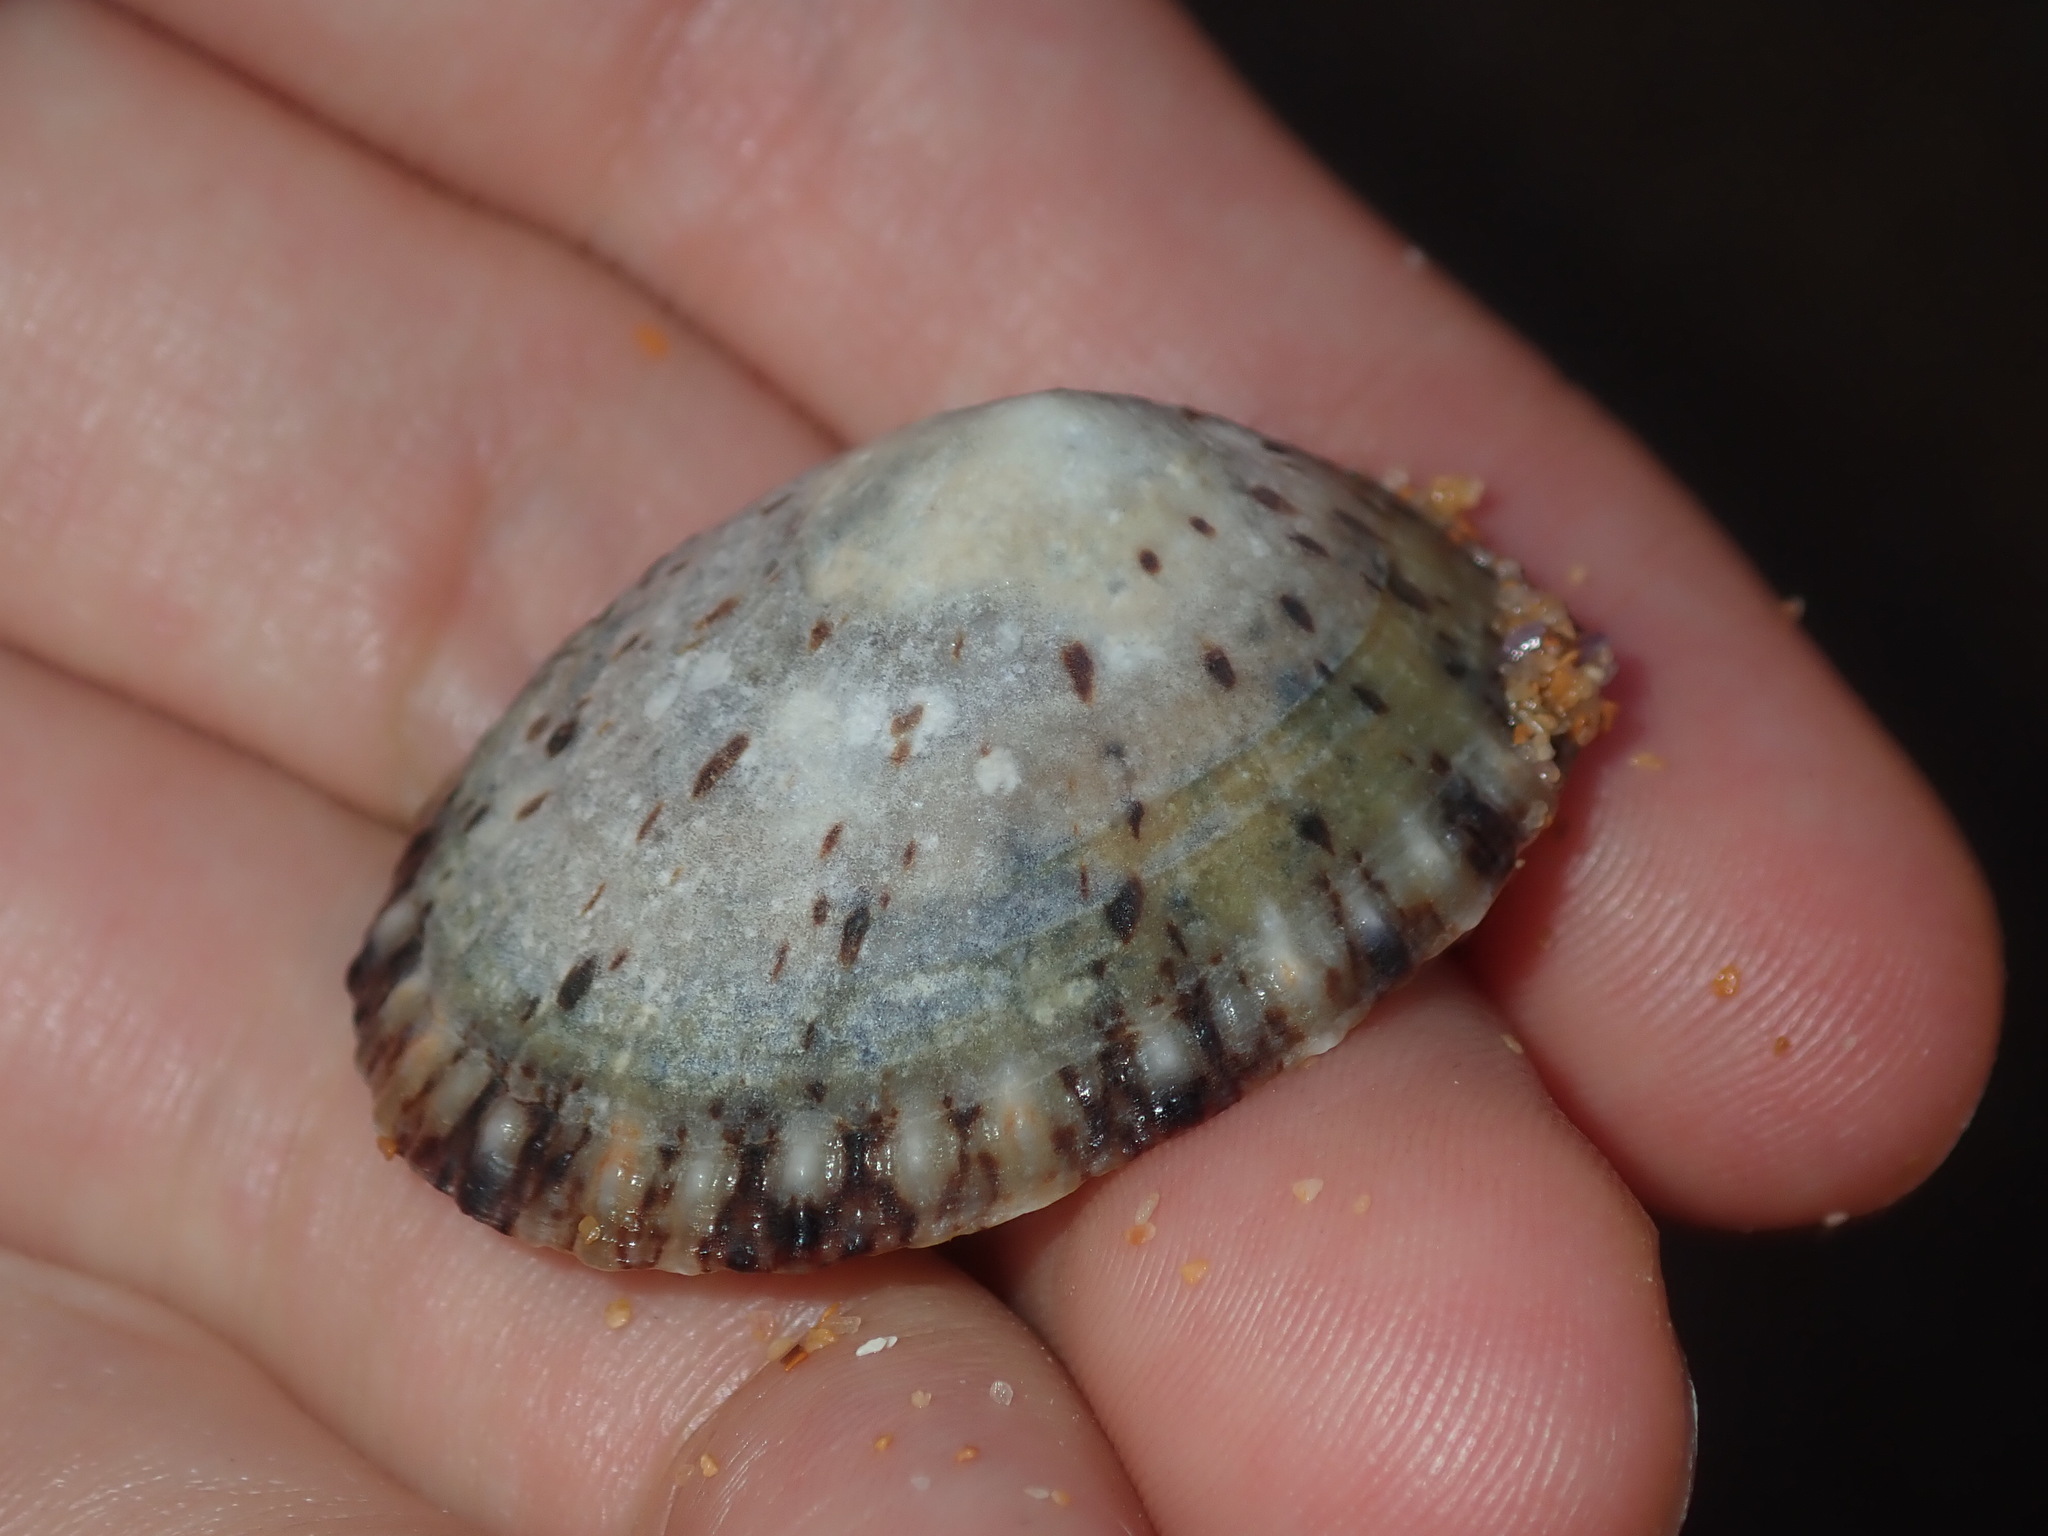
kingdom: Animalia
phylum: Mollusca
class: Gastropoda
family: Nacellidae
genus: Cellana
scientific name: Cellana tramoserica
